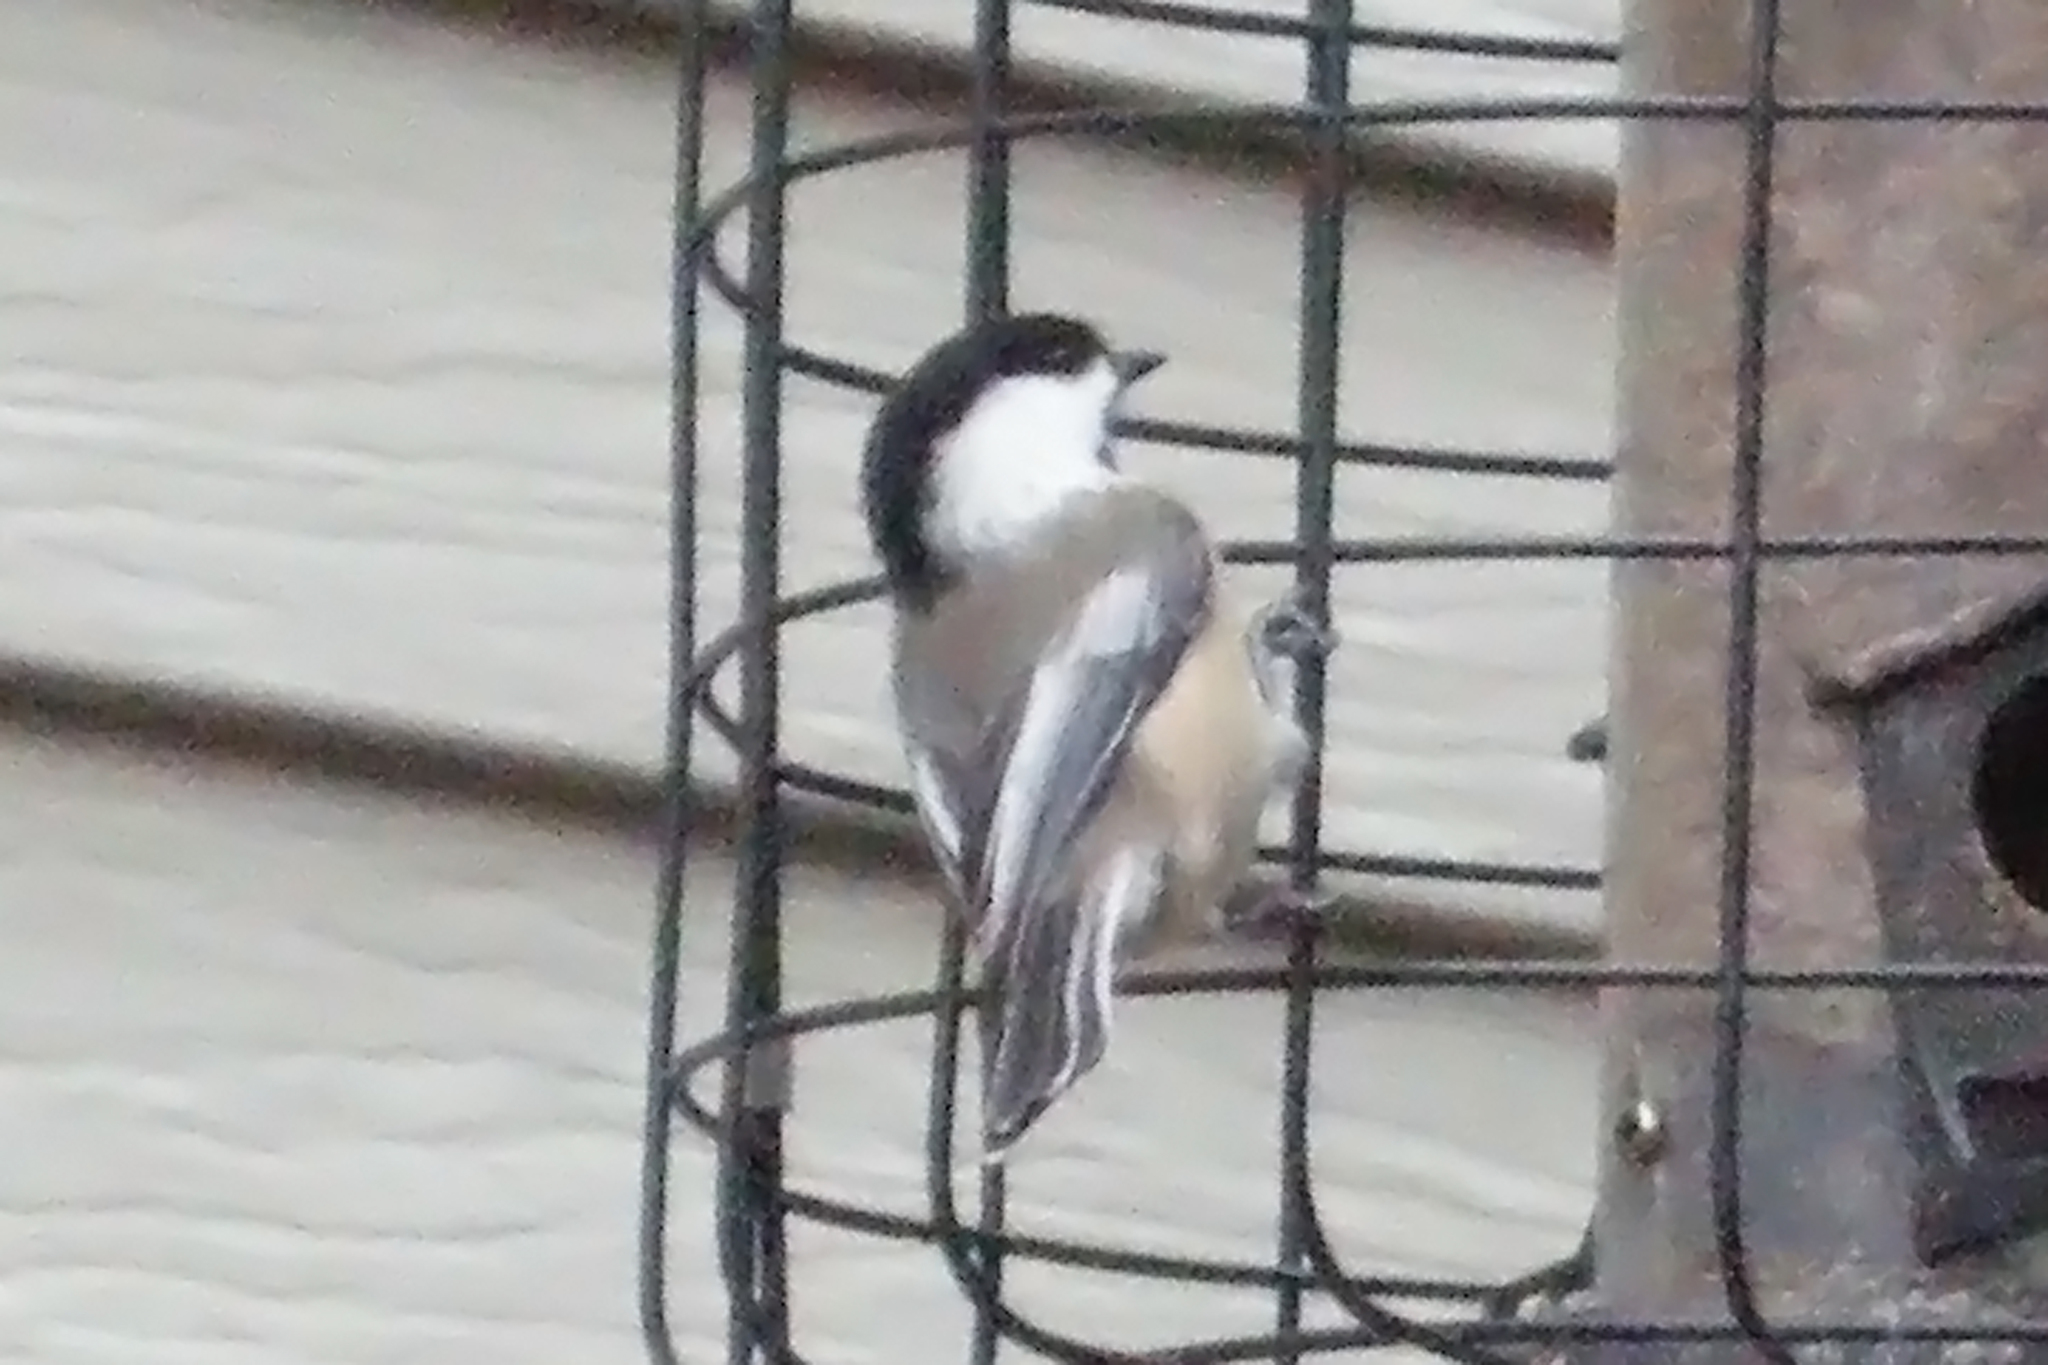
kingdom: Animalia
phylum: Chordata
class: Aves
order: Passeriformes
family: Paridae
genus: Poecile
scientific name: Poecile atricapillus
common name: Black-capped chickadee
